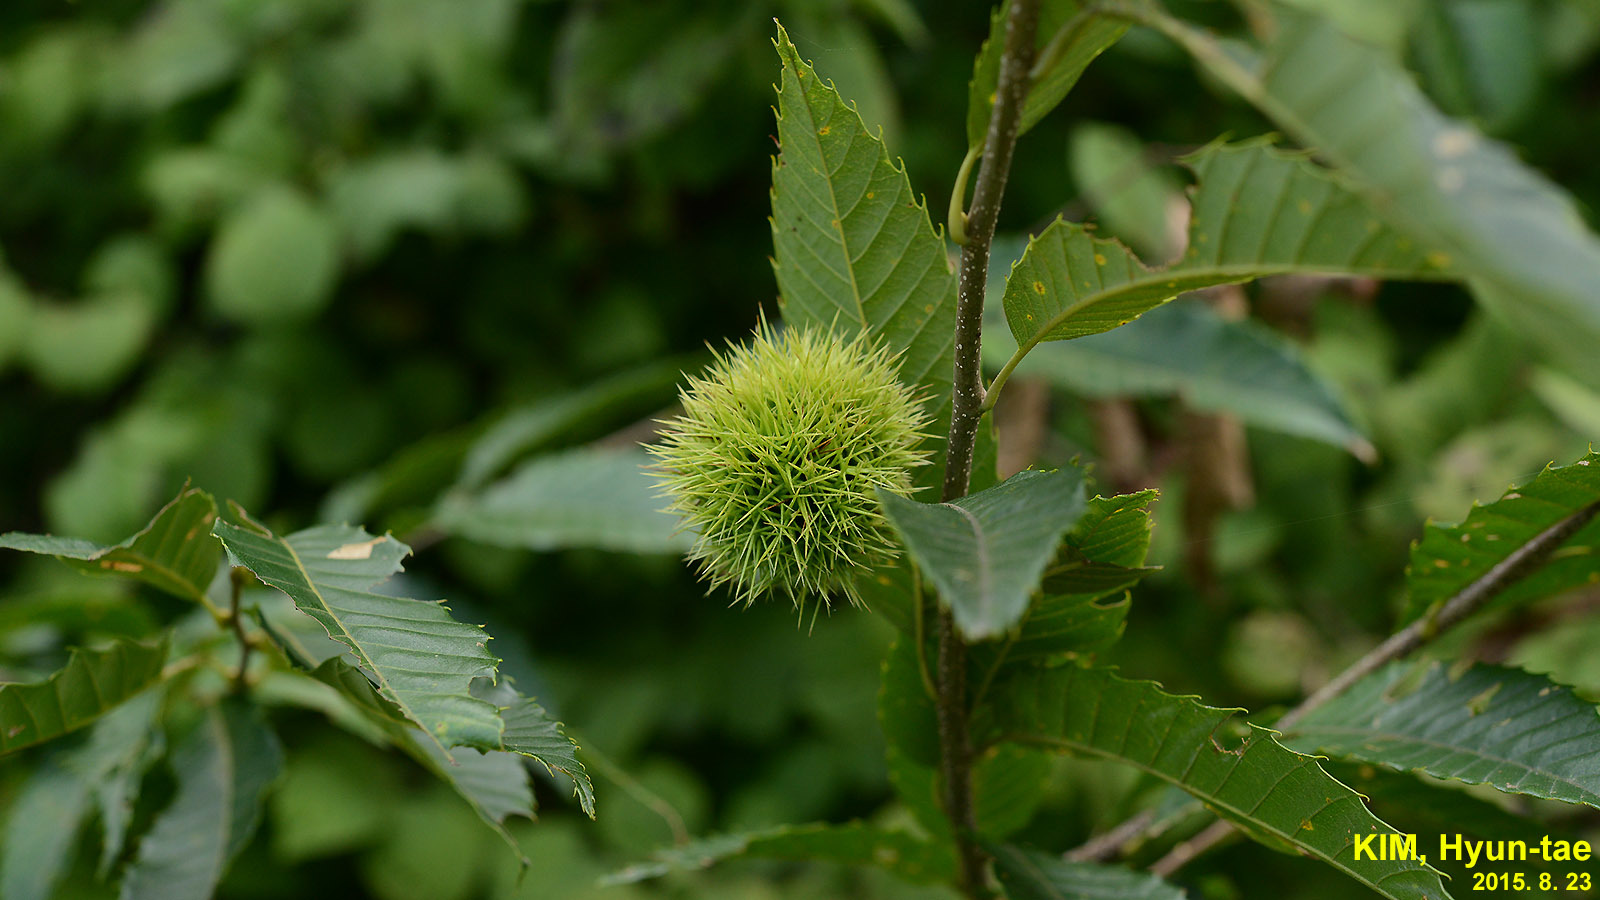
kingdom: Plantae
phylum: Tracheophyta
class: Magnoliopsida
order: Fagales
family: Fagaceae
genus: Castanea
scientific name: Castanea crenata
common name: Japanese chestnut
